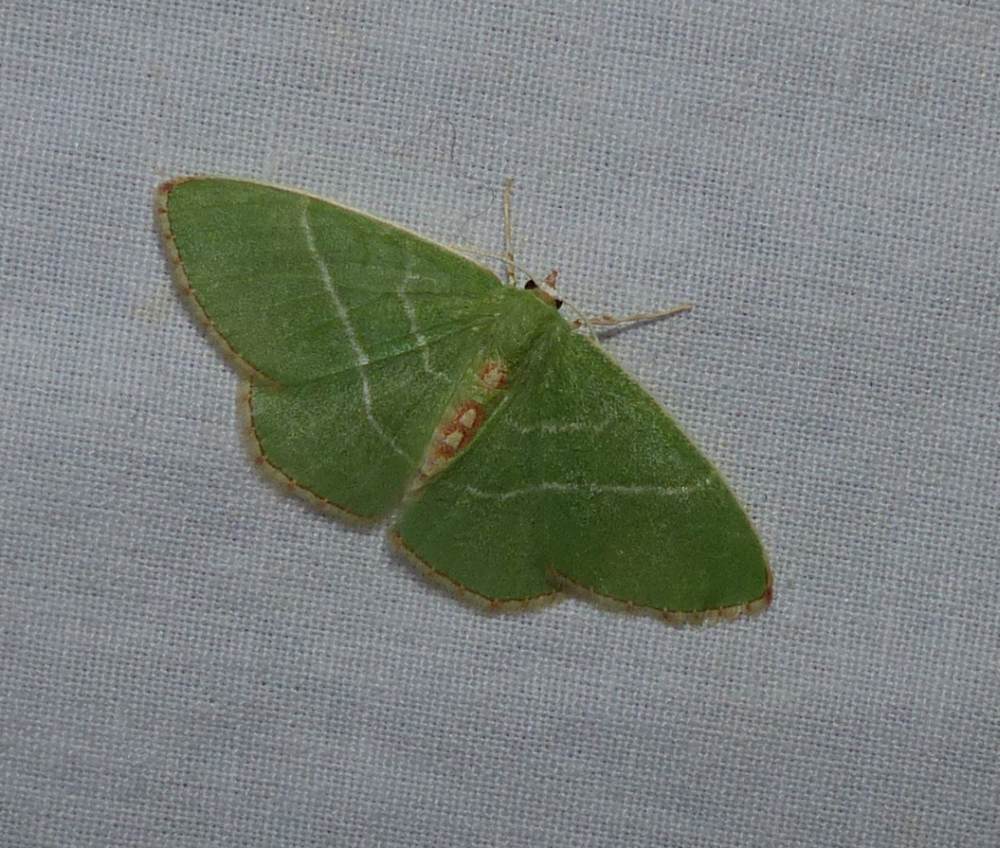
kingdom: Animalia
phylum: Arthropoda
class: Insecta
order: Lepidoptera
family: Geometridae
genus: Nemoria
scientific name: Nemoria bistriaria
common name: Red-fringed emerald
